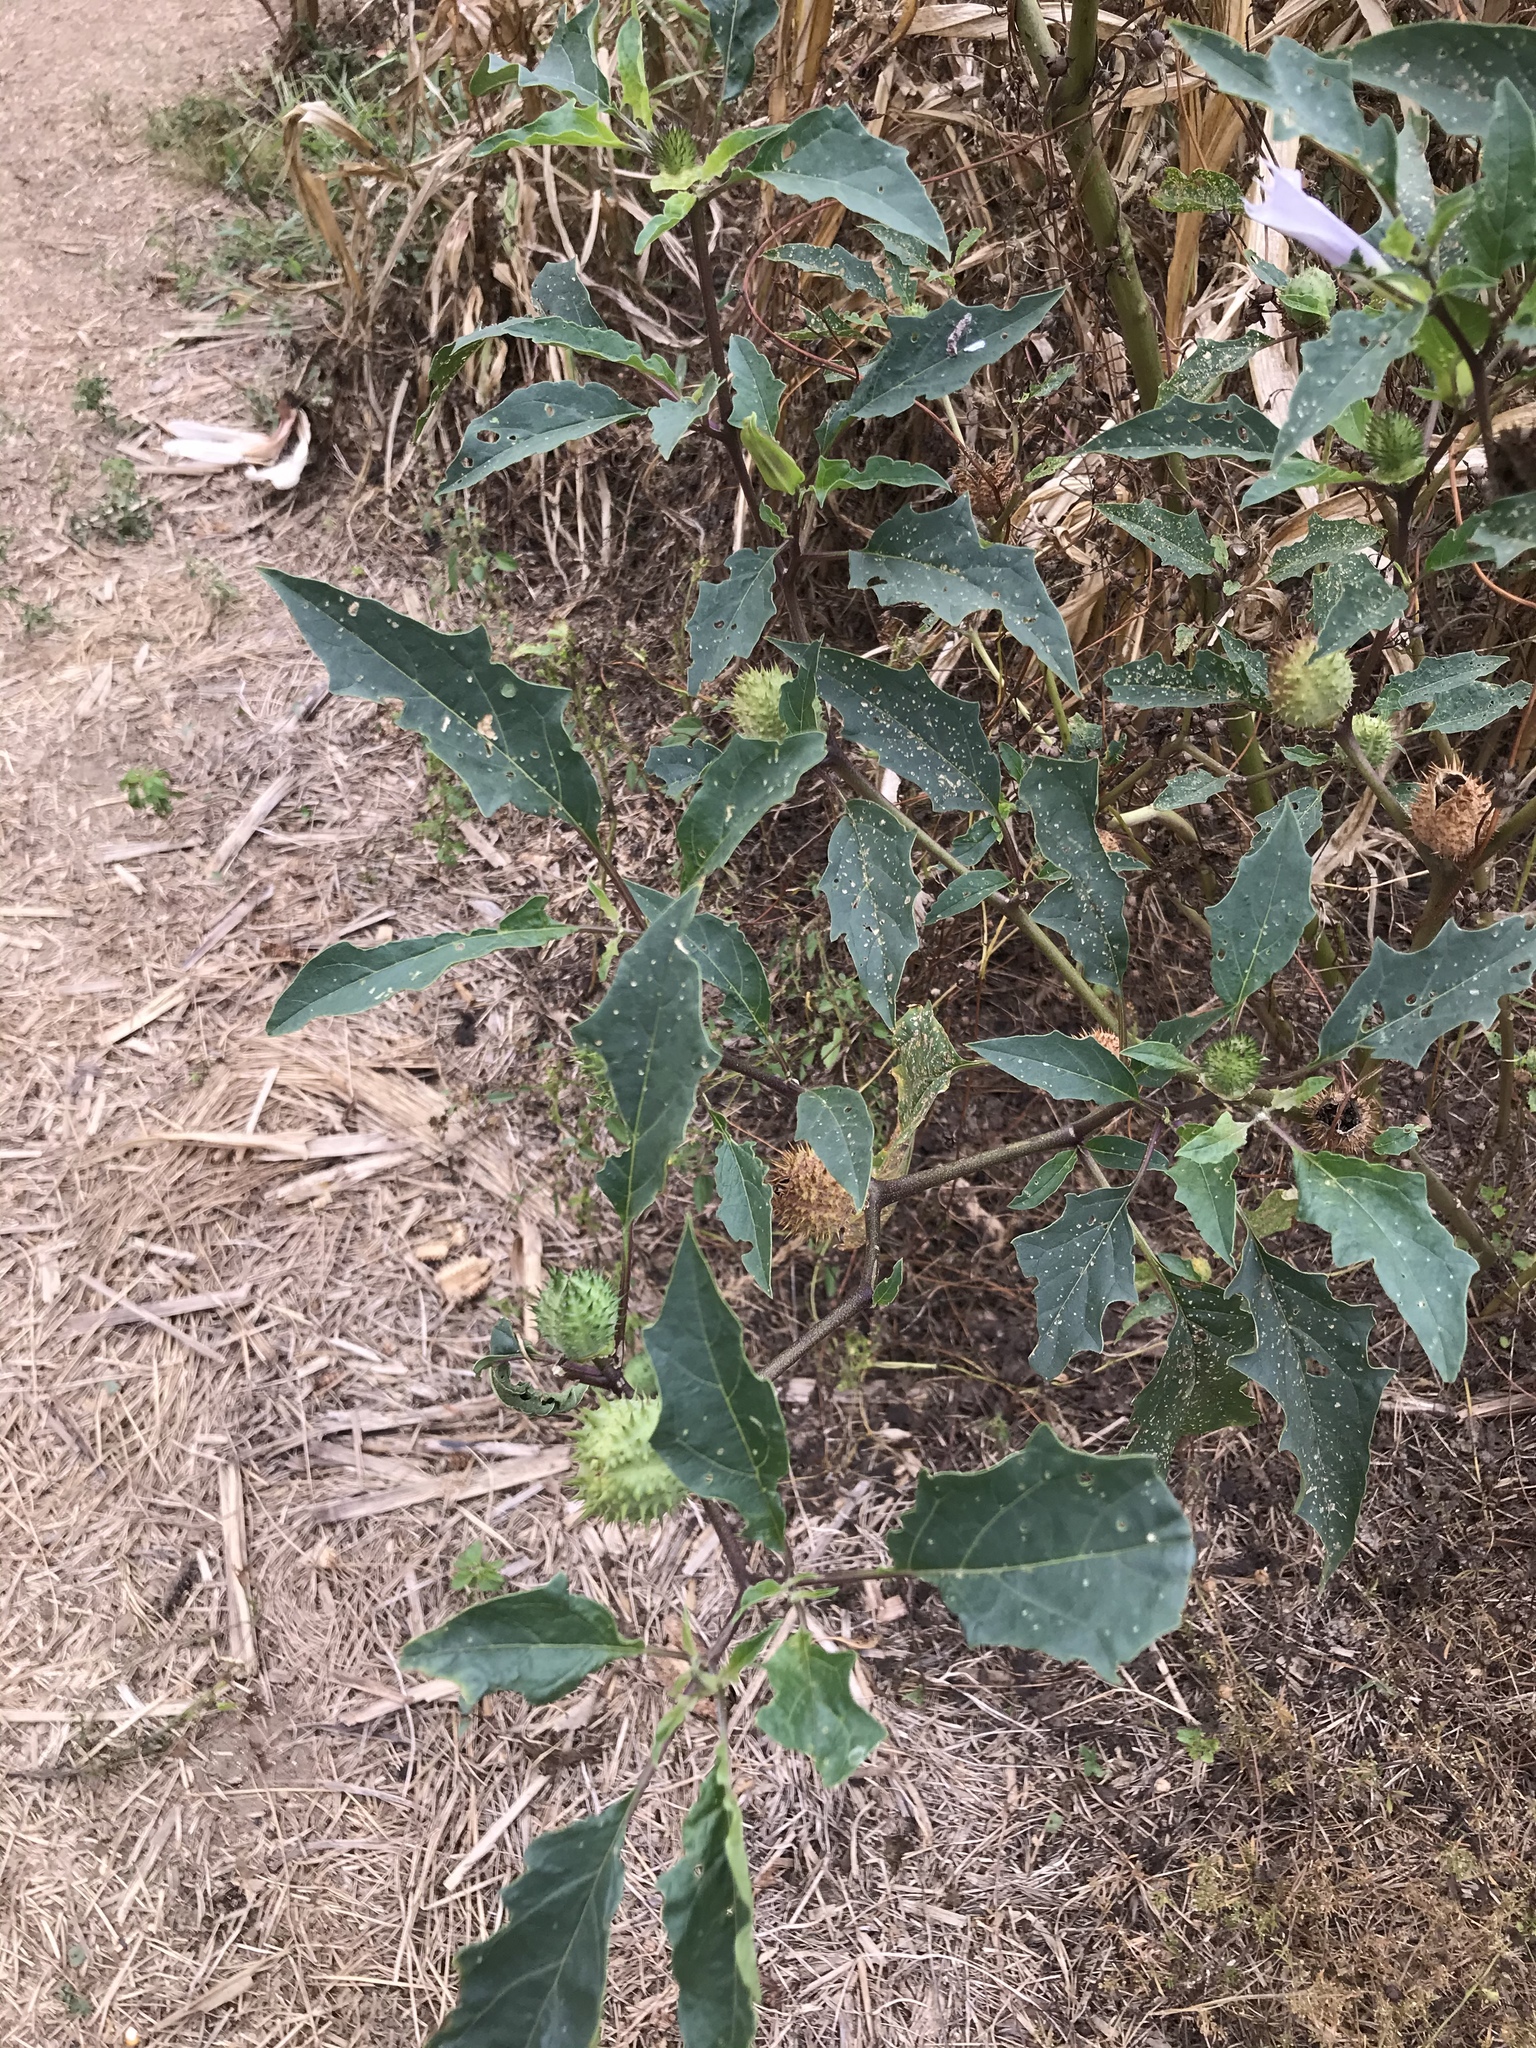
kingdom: Plantae
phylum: Tracheophyta
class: Magnoliopsida
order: Solanales
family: Solanaceae
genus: Datura
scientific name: Datura stramonium
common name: Thorn-apple
